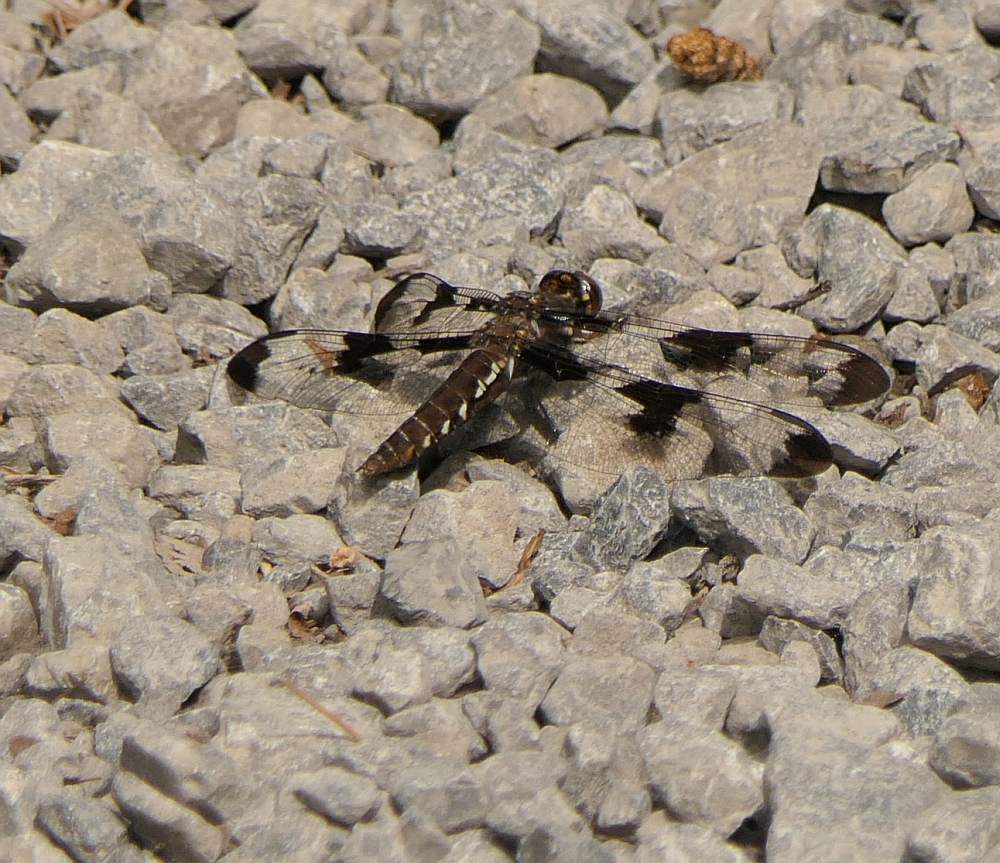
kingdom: Animalia
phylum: Arthropoda
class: Insecta
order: Odonata
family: Libellulidae
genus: Plathemis
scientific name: Plathemis lydia
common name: Common whitetail
